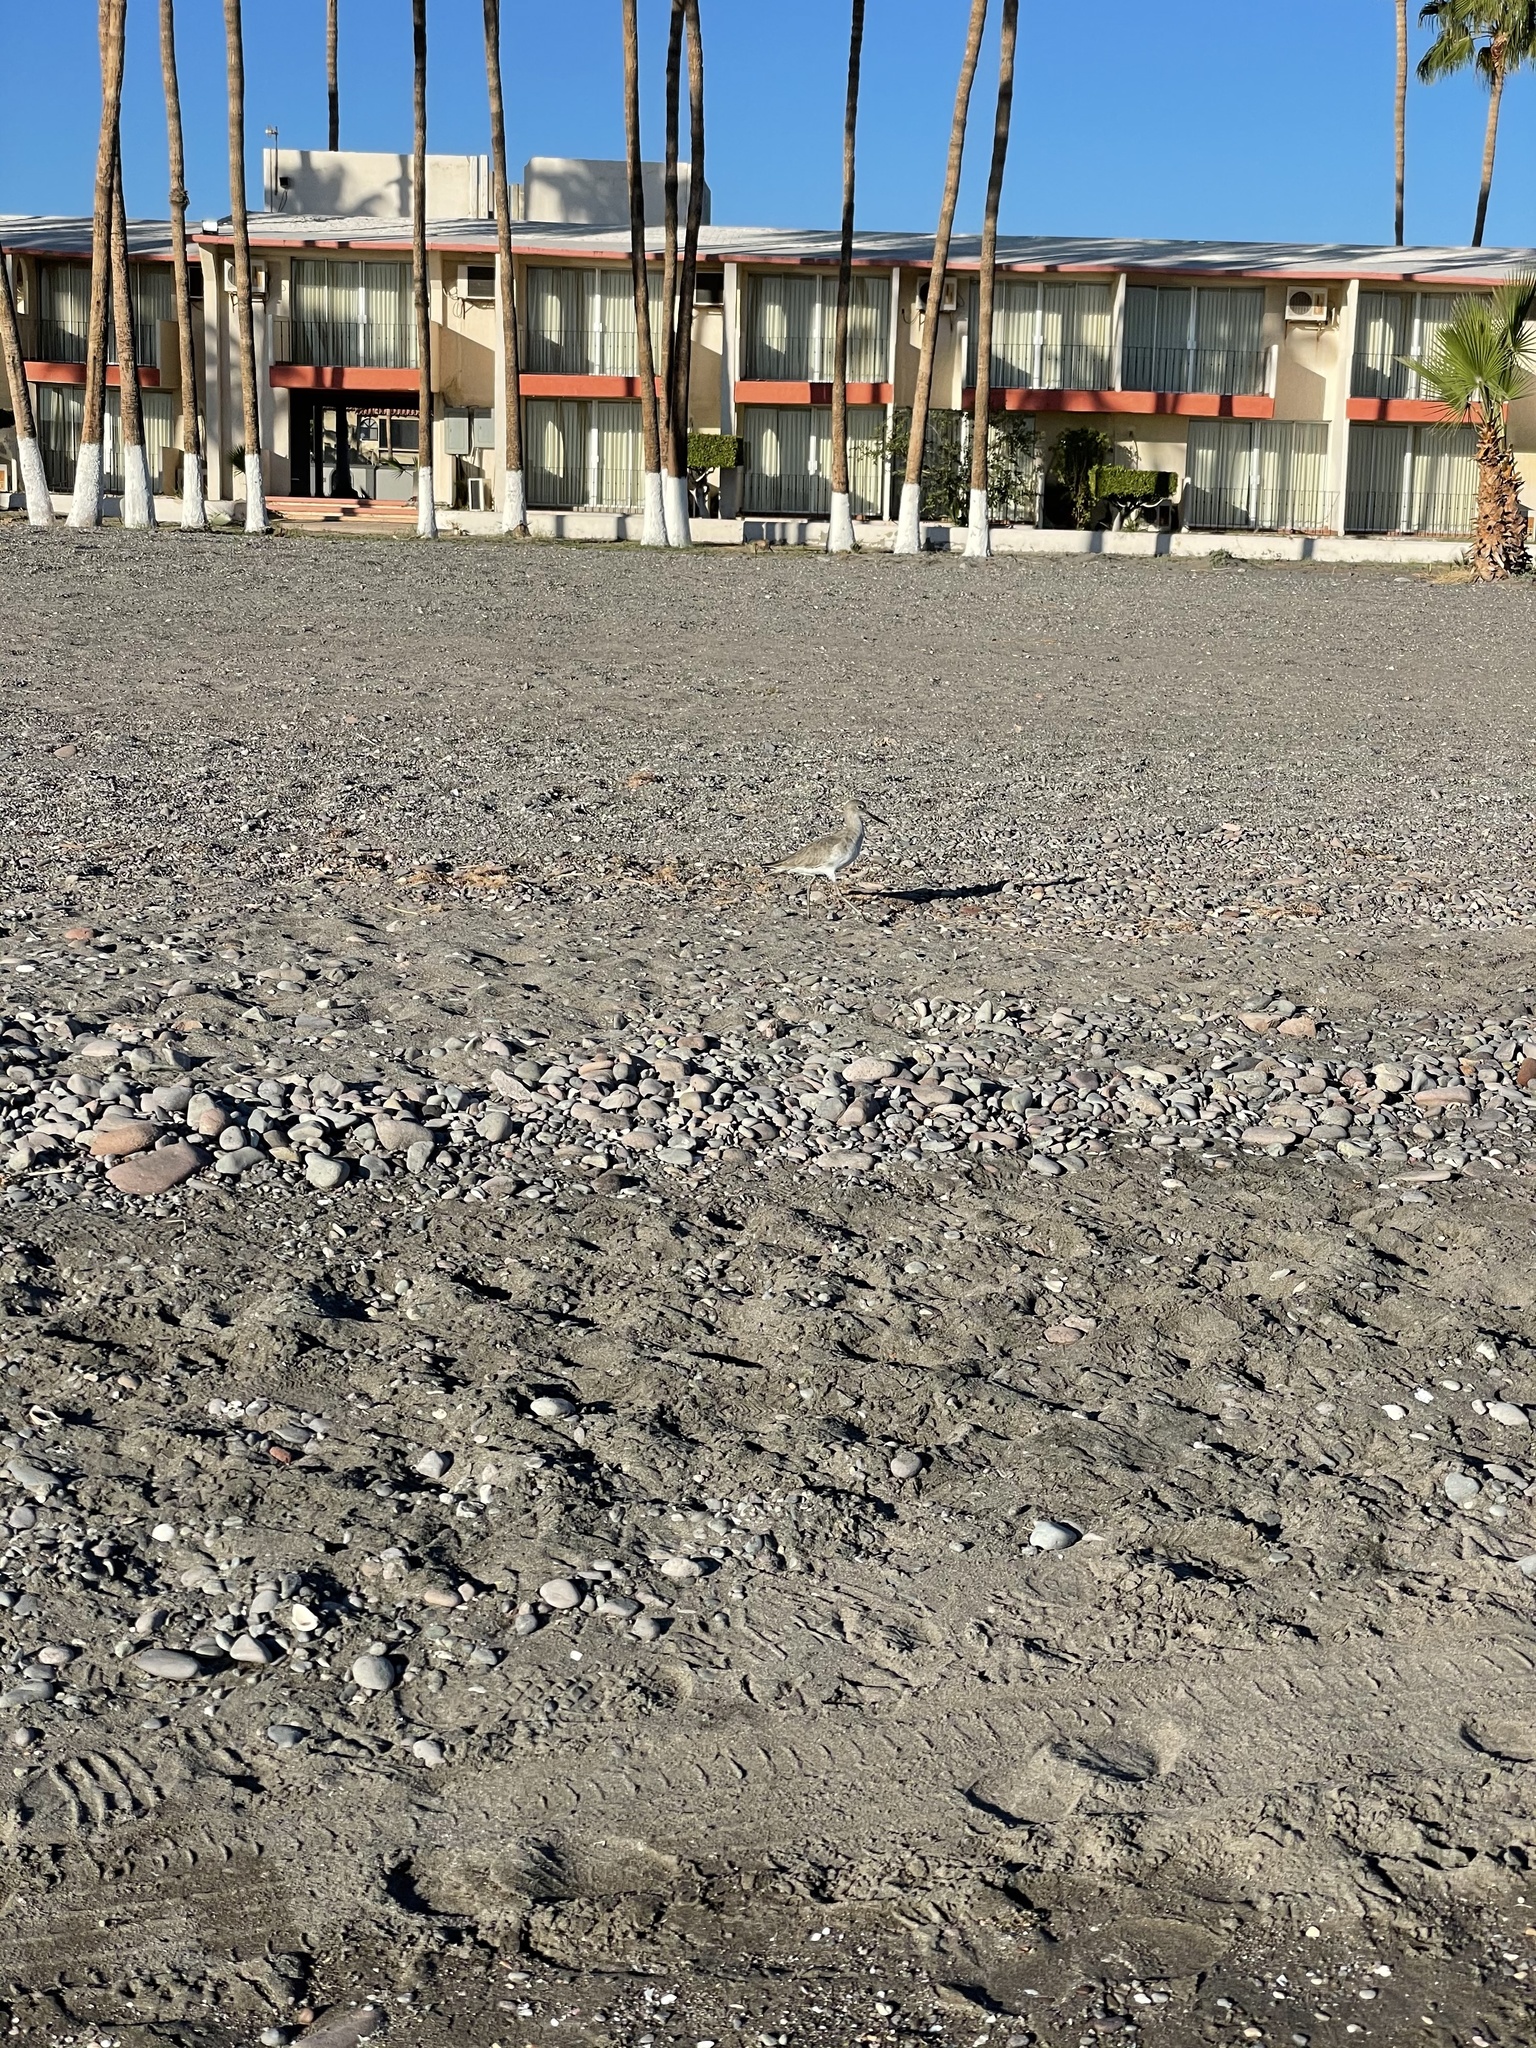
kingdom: Animalia
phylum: Chordata
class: Aves
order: Charadriiformes
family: Scolopacidae
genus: Tringa
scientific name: Tringa semipalmata
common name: Willet
